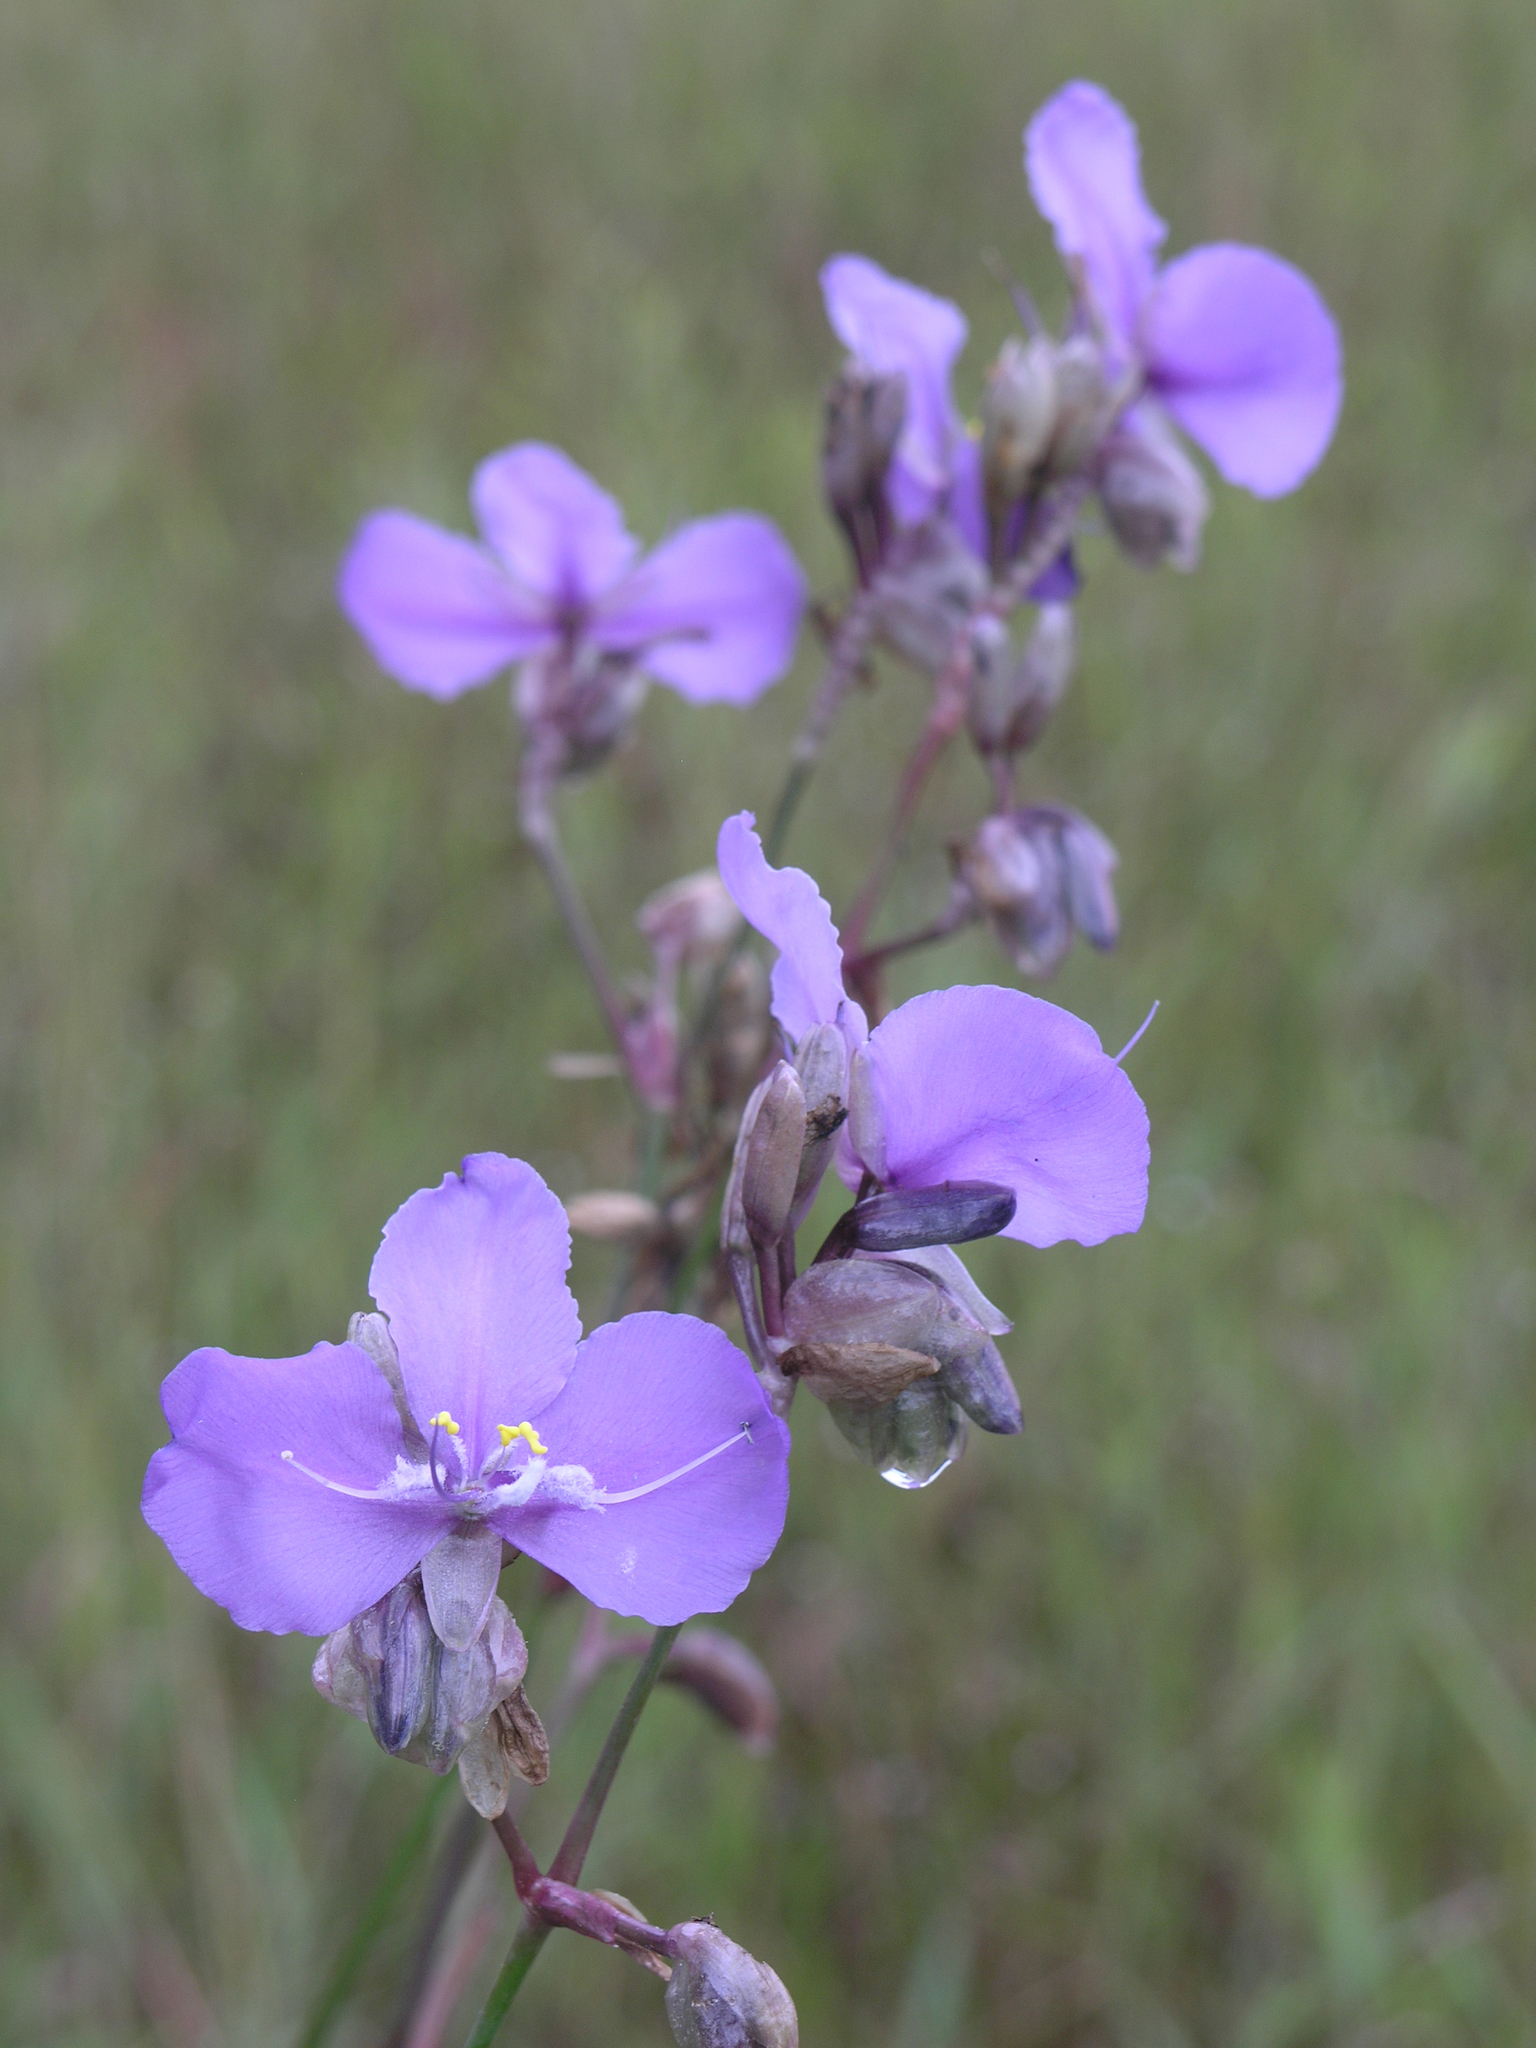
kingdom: Plantae
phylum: Tracheophyta
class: Liliopsida
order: Commelinales
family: Commelinaceae
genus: Murdannia
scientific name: Murdannia macrocarpa
